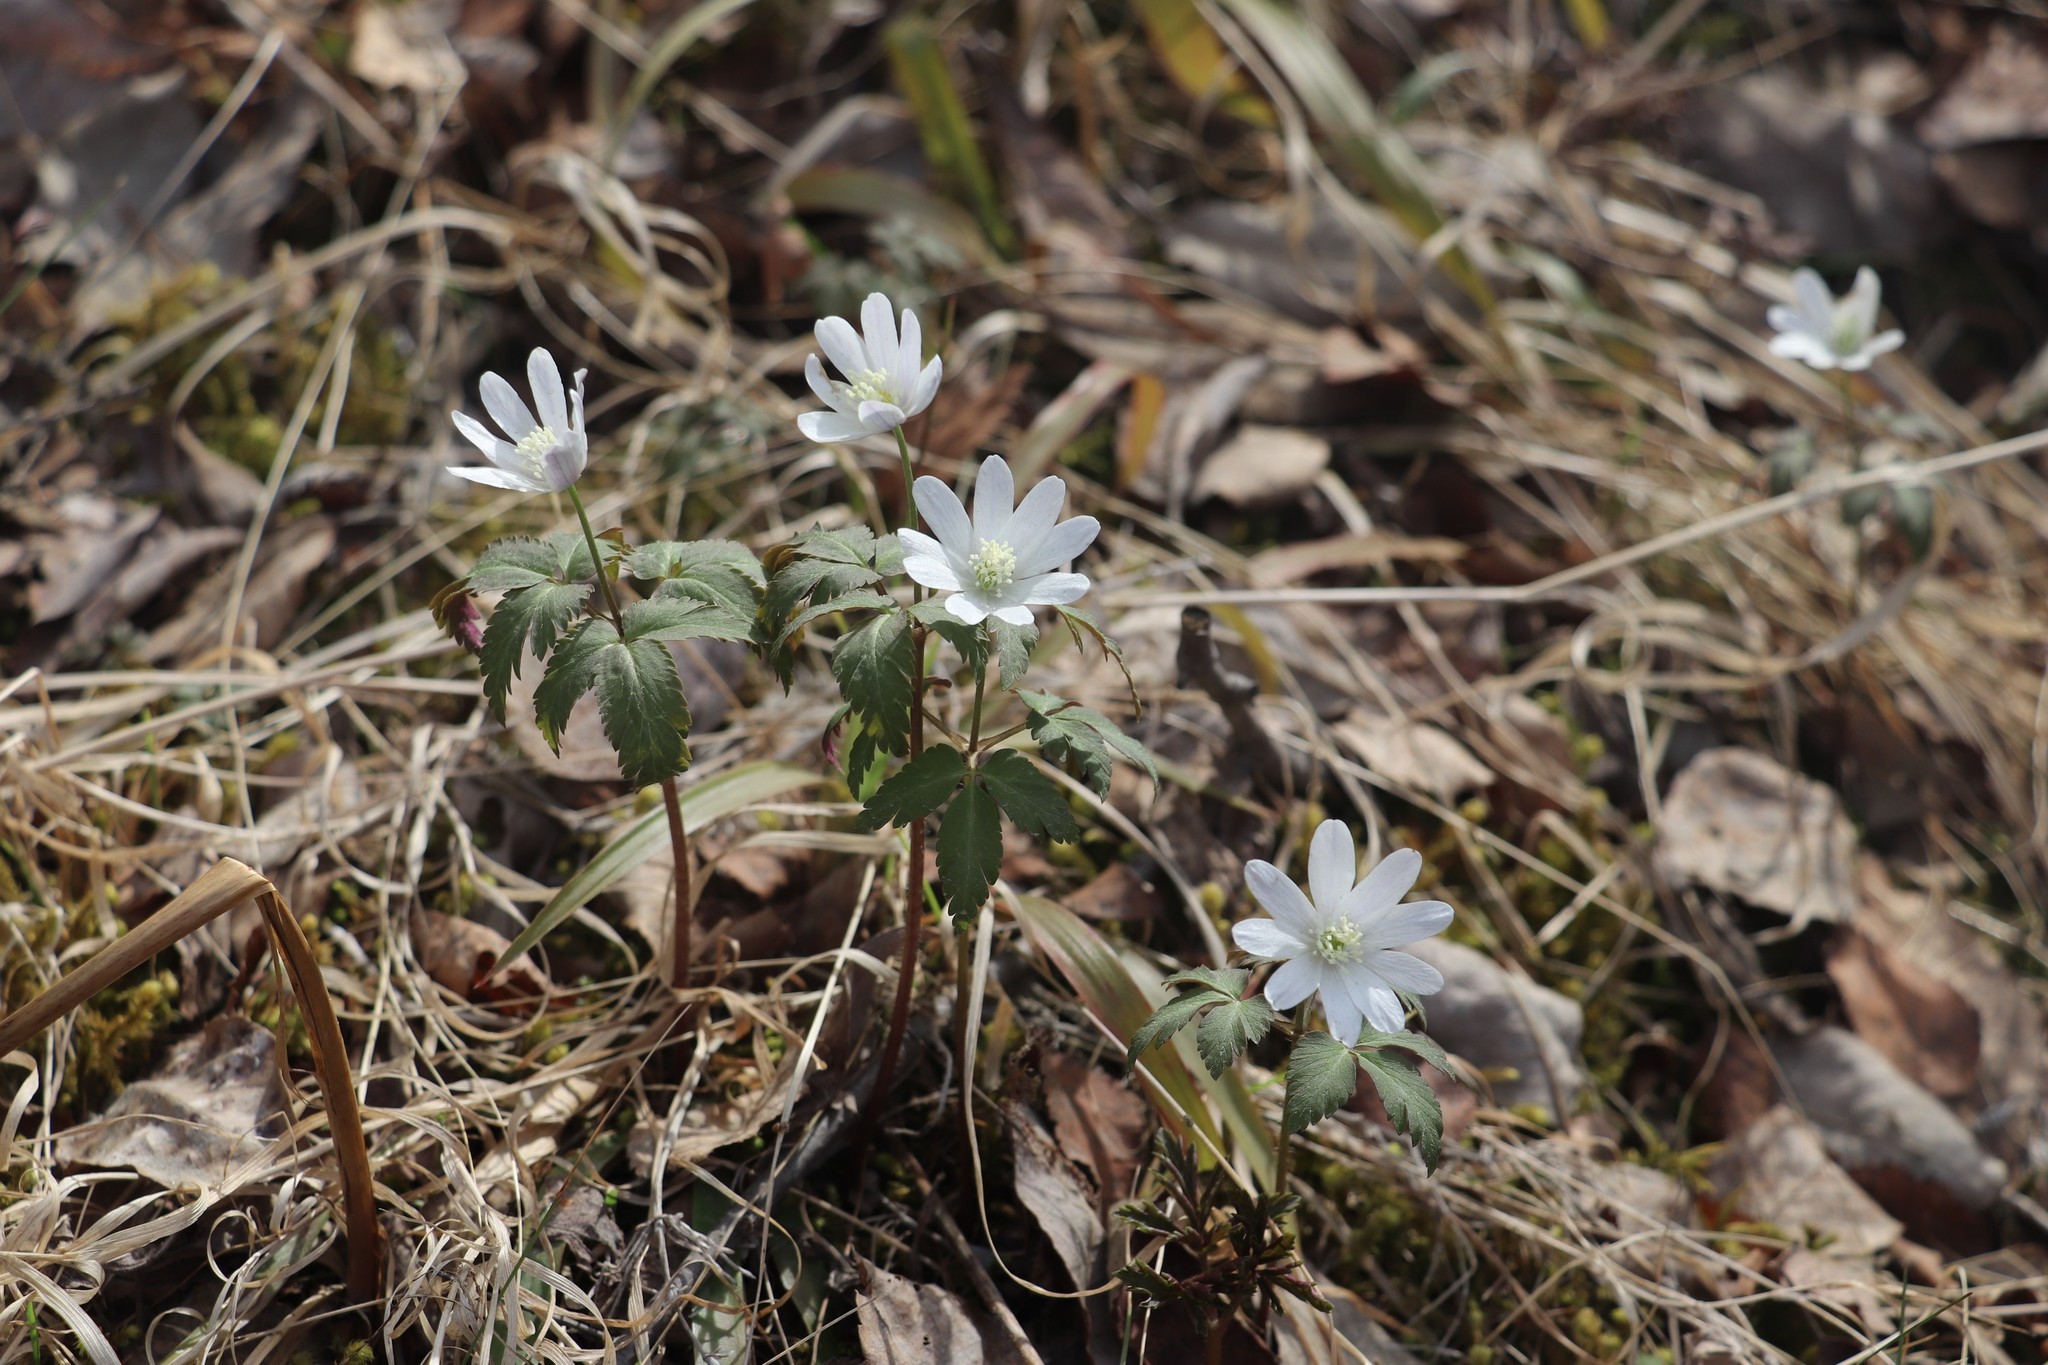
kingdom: Plantae
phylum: Tracheophyta
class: Magnoliopsida
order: Ranunculales
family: Ranunculaceae
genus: Anemone
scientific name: Anemone altaica
